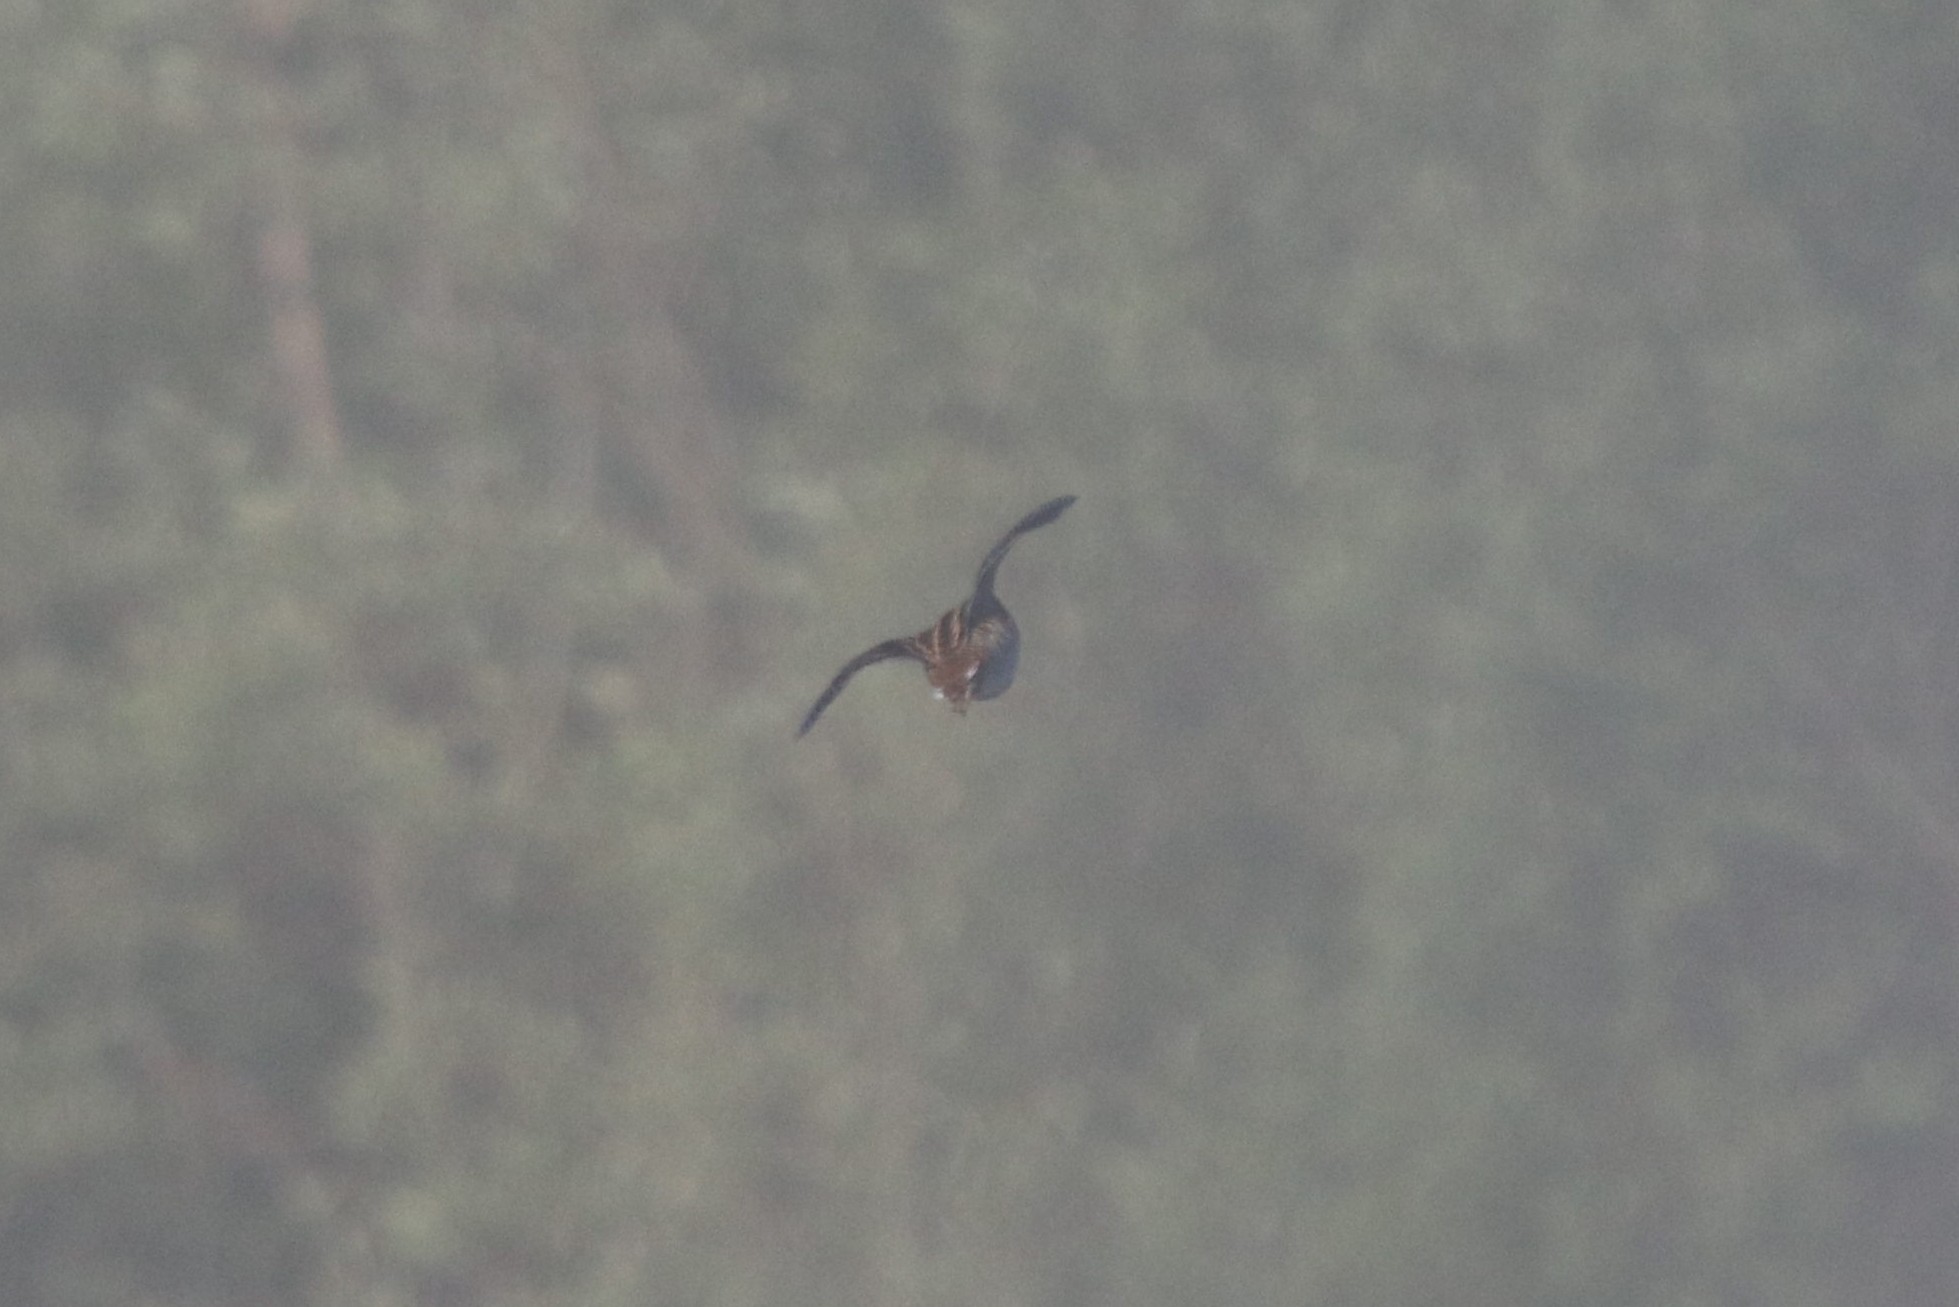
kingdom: Animalia
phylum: Chordata
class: Aves
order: Charadriiformes
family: Scolopacidae
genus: Gallinago
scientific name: Gallinago media
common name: Great snipe
